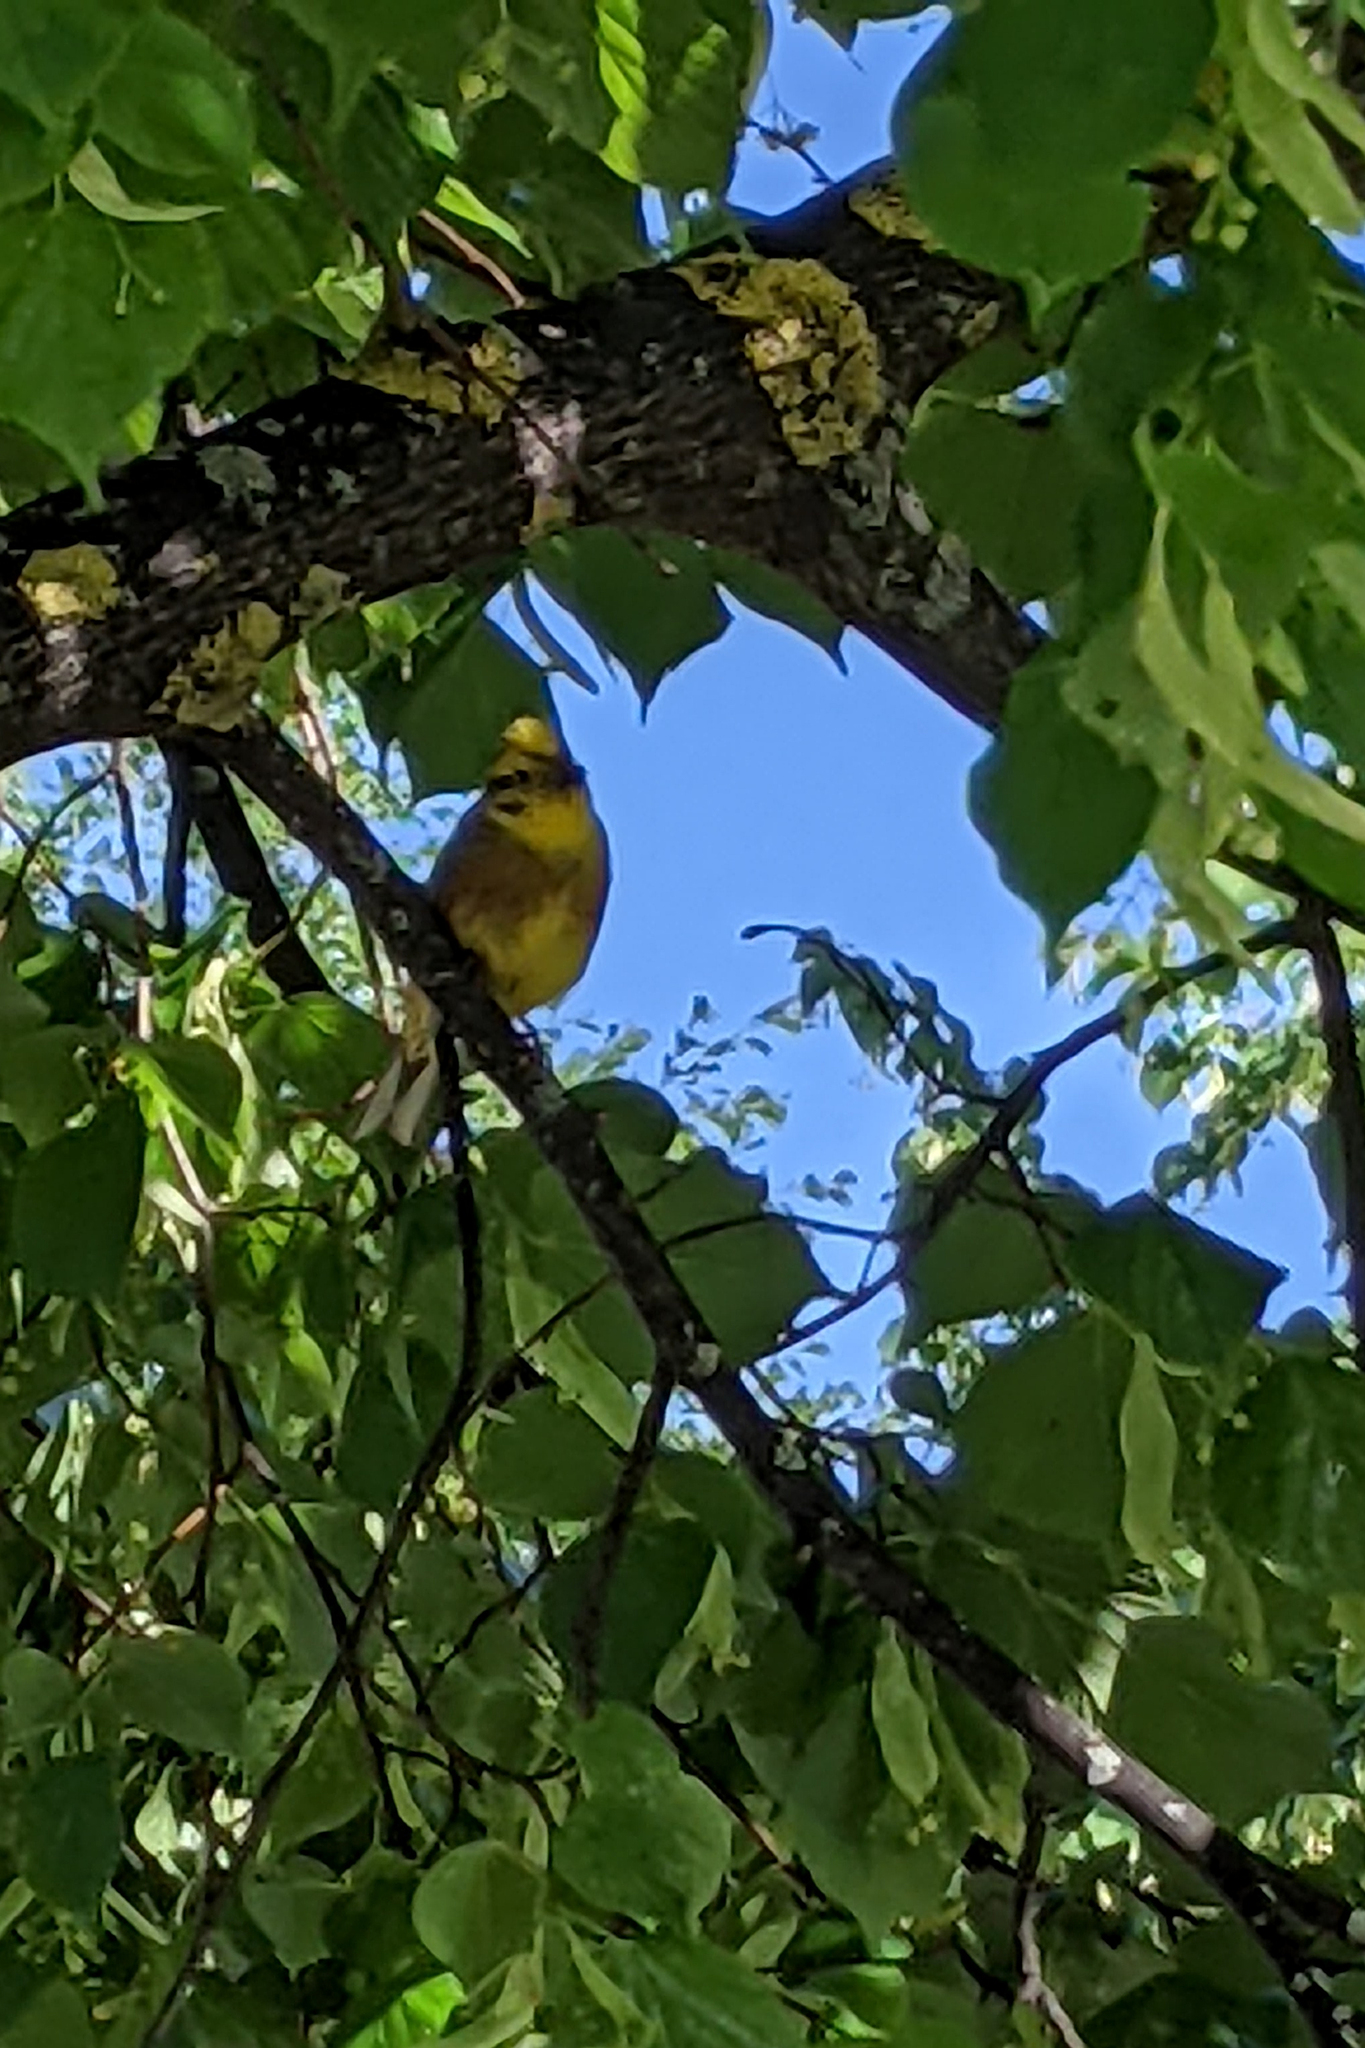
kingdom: Animalia
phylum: Chordata
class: Aves
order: Passeriformes
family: Emberizidae
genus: Emberiza
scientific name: Emberiza citrinella
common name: Yellowhammer
